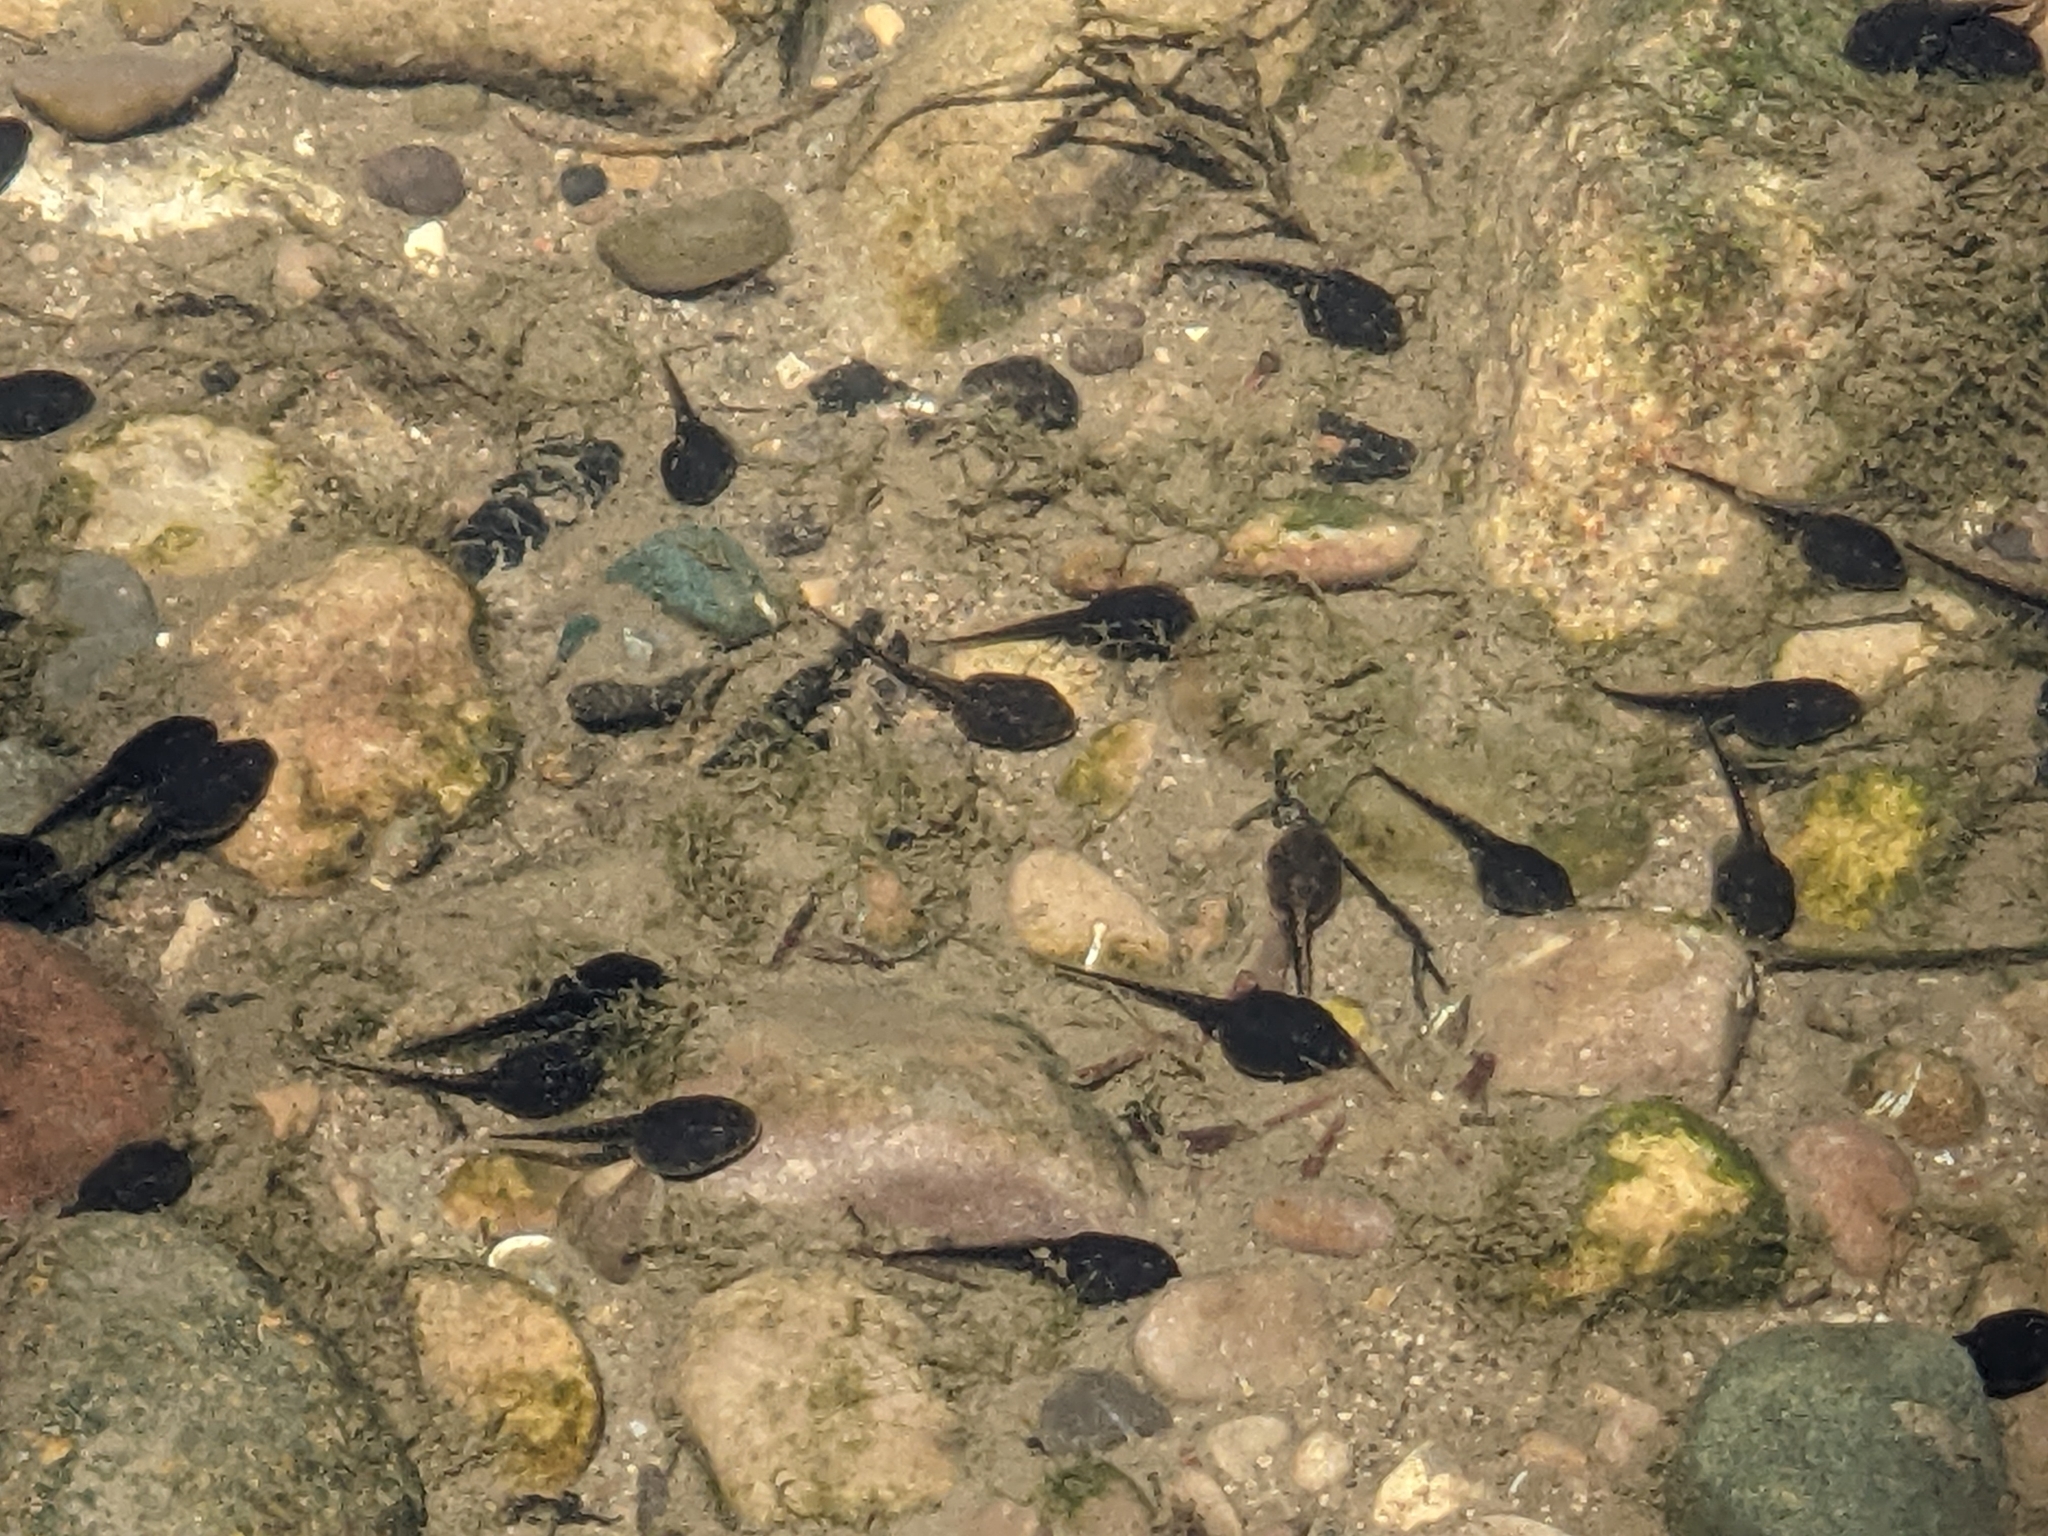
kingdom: Animalia
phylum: Chordata
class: Amphibia
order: Anura
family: Bufonidae
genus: Anaxyrus
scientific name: Anaxyrus americanus
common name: American toad
